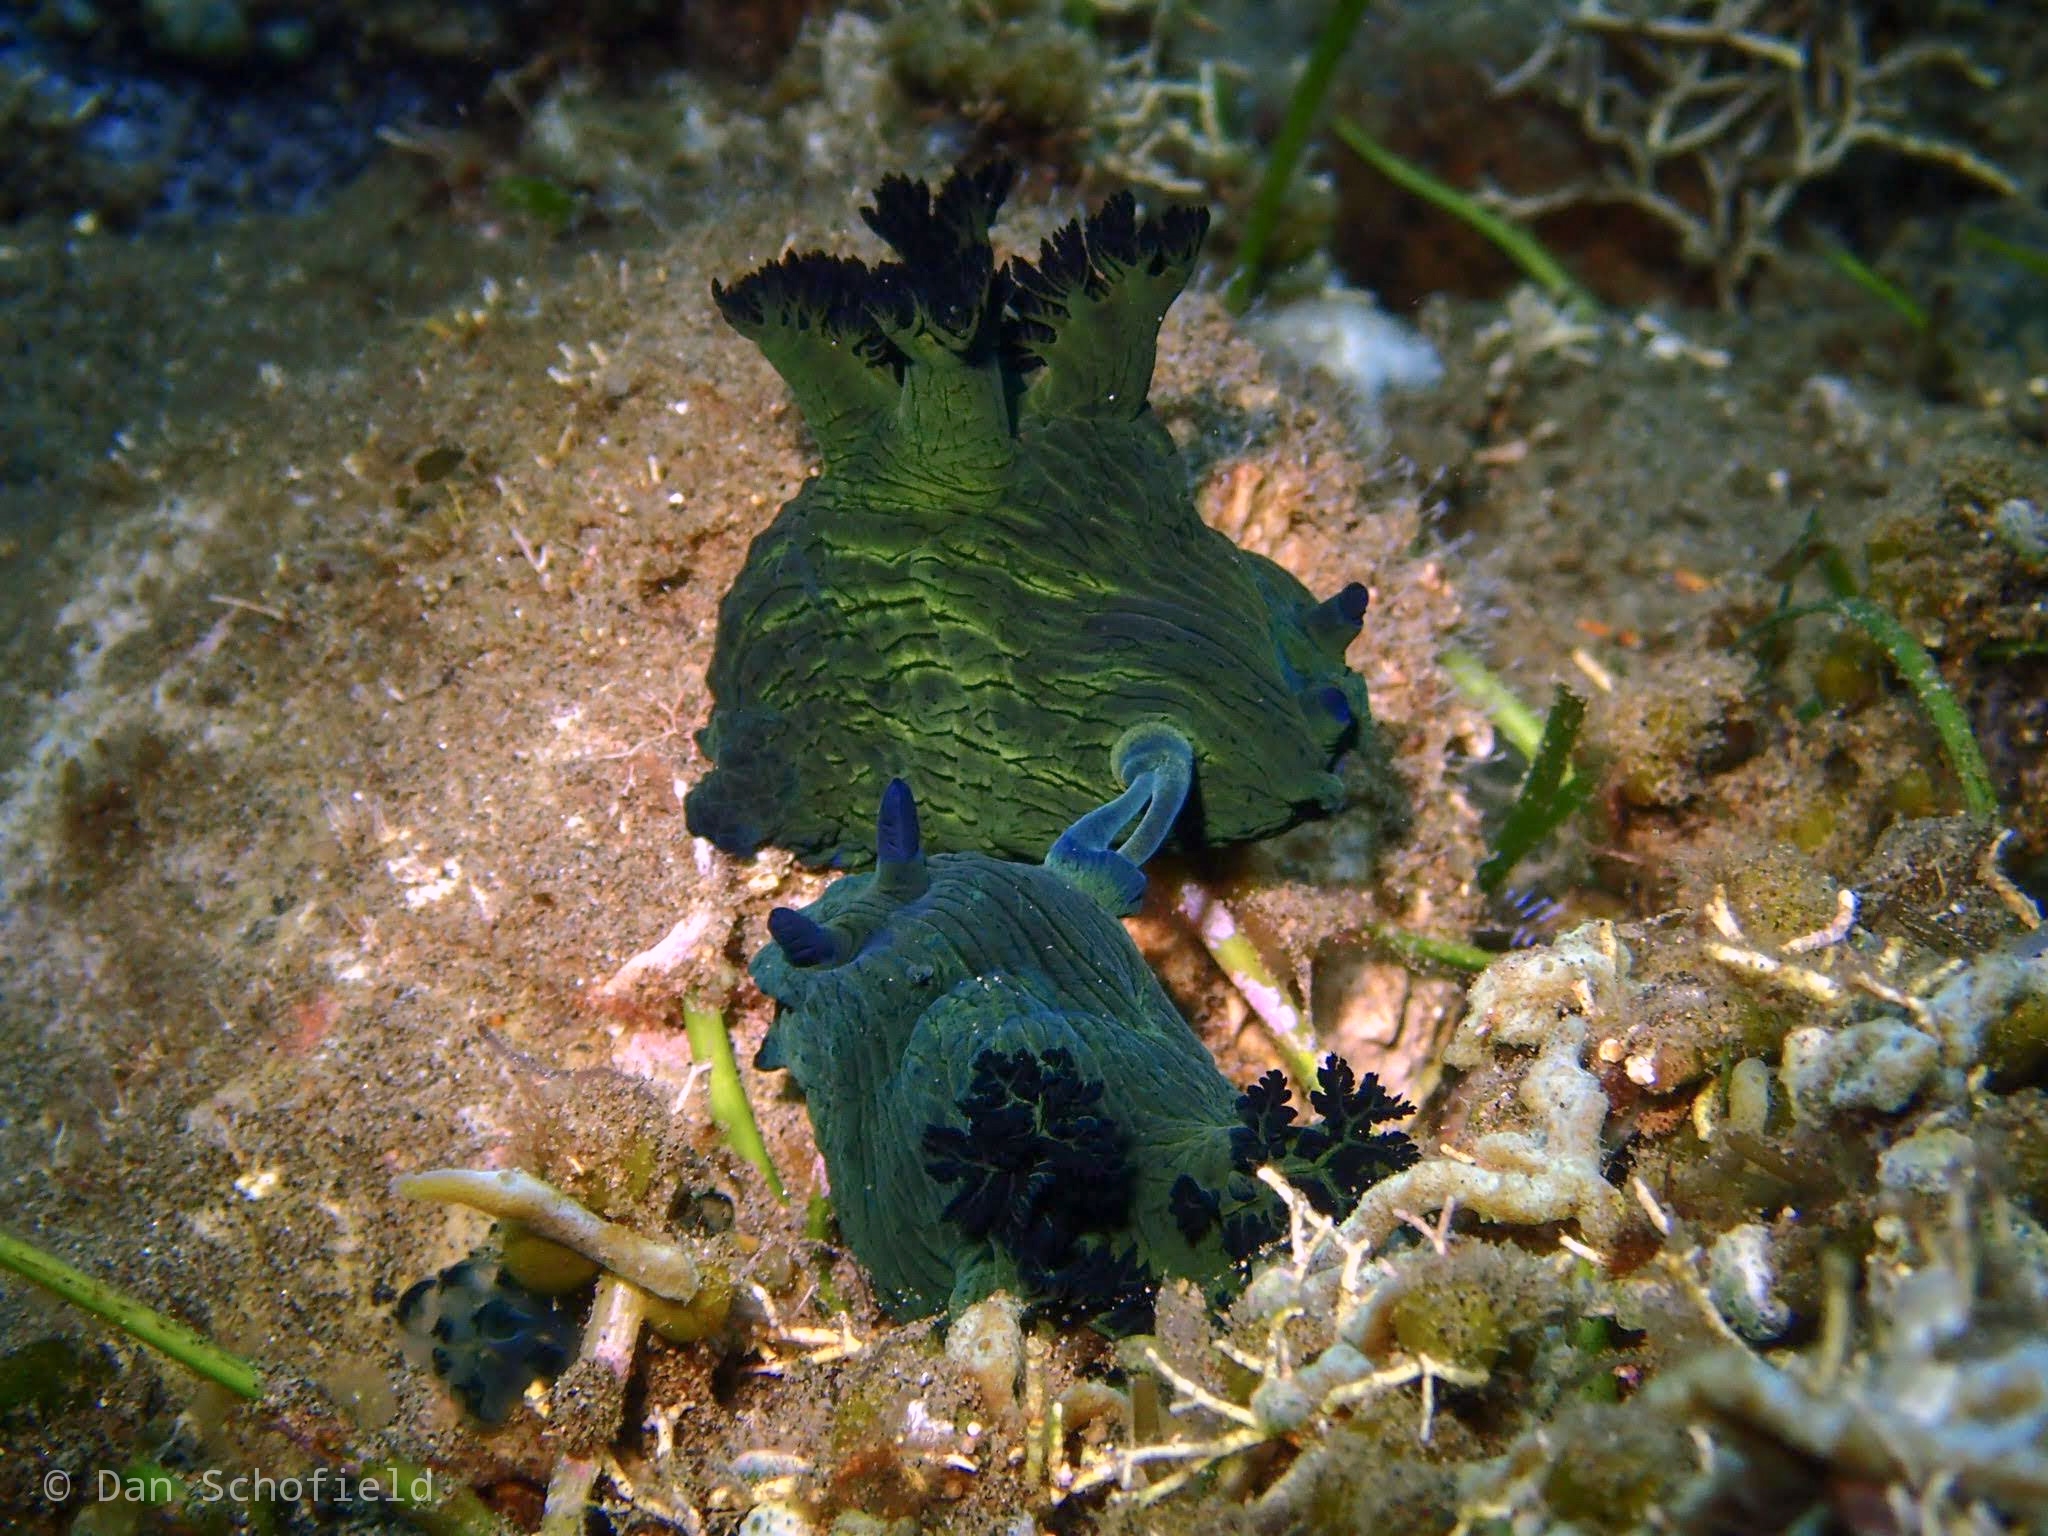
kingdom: Animalia
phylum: Mollusca
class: Gastropoda
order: Nudibranchia
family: Polyceridae
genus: Nembrotha
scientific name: Nembrotha milleri
